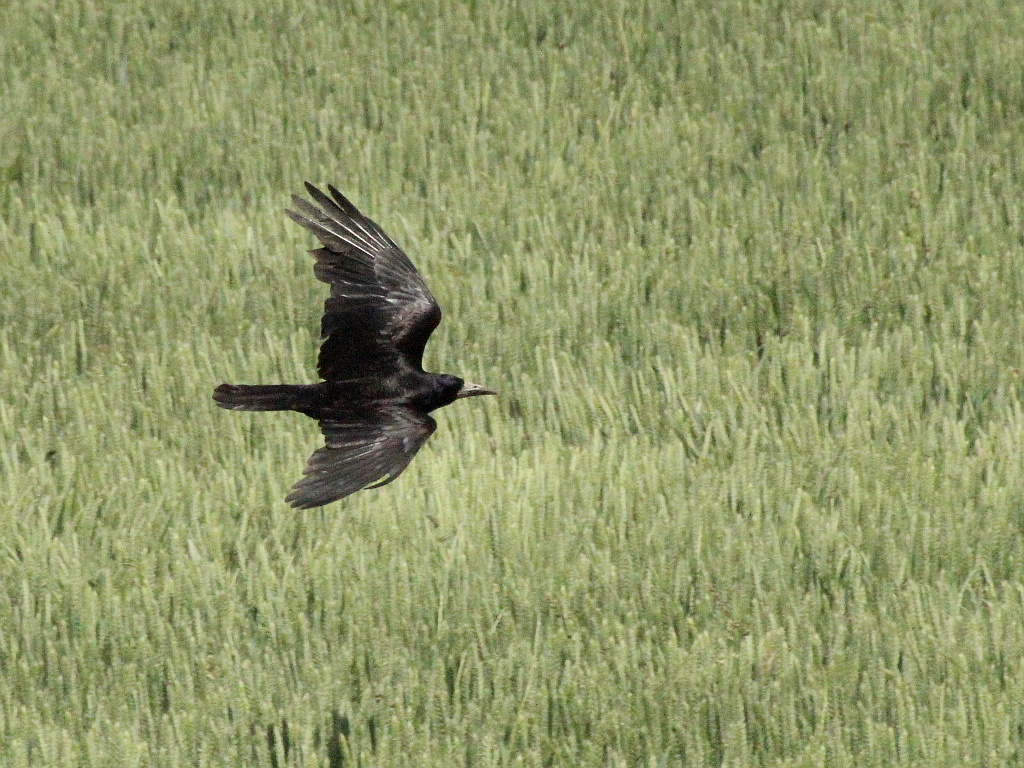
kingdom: Animalia
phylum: Chordata
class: Aves
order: Passeriformes
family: Corvidae
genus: Corvus
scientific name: Corvus frugilegus
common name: Rook
